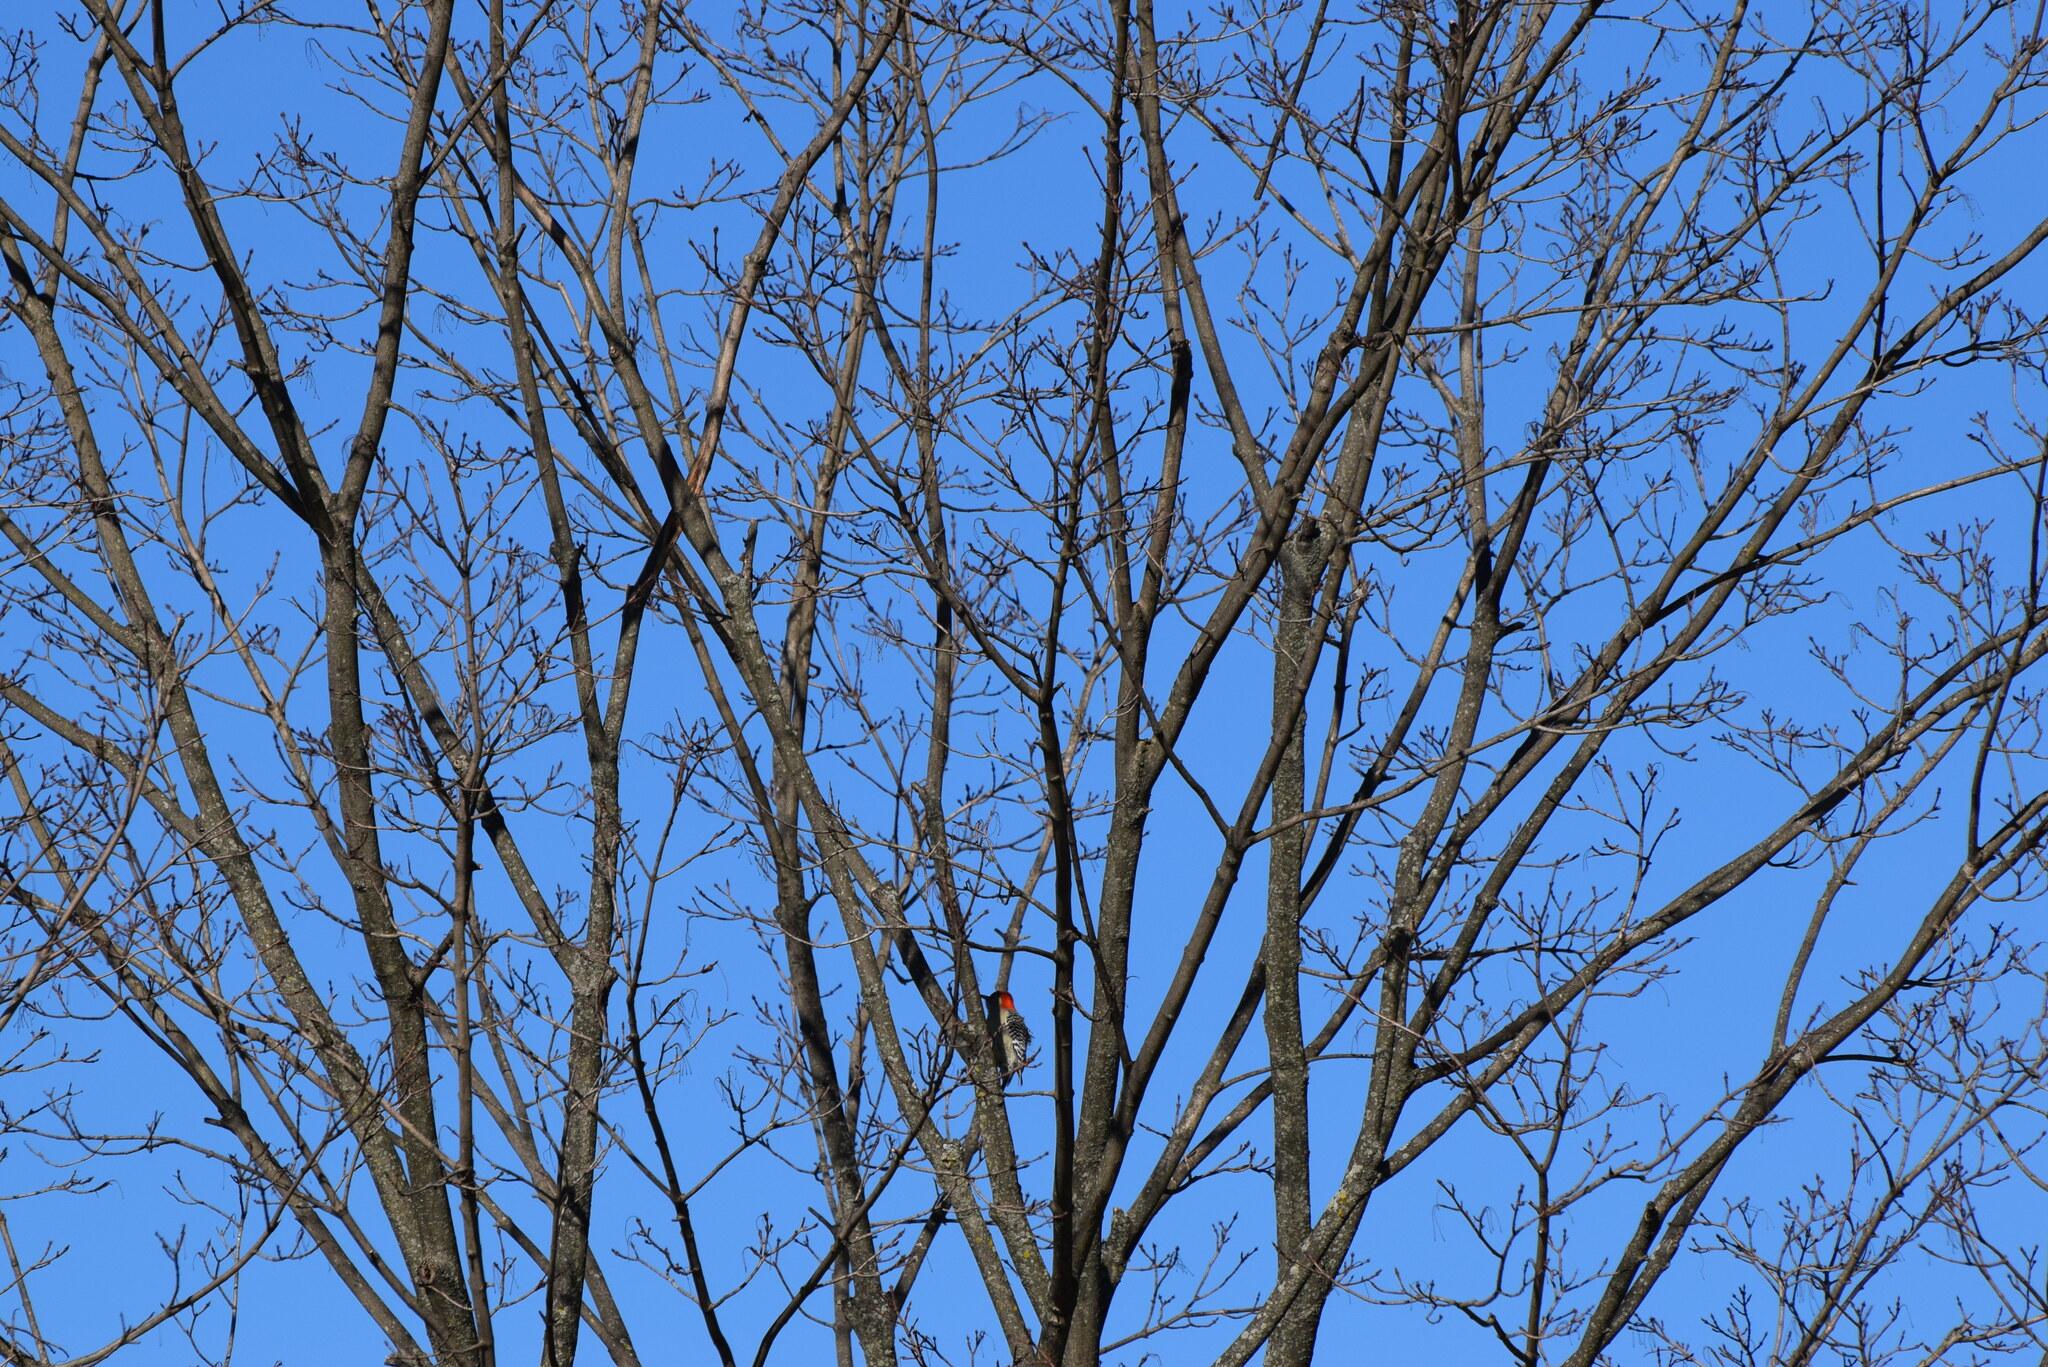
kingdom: Animalia
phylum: Chordata
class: Aves
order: Piciformes
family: Picidae
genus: Melanerpes
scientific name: Melanerpes carolinus
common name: Red-bellied woodpecker
